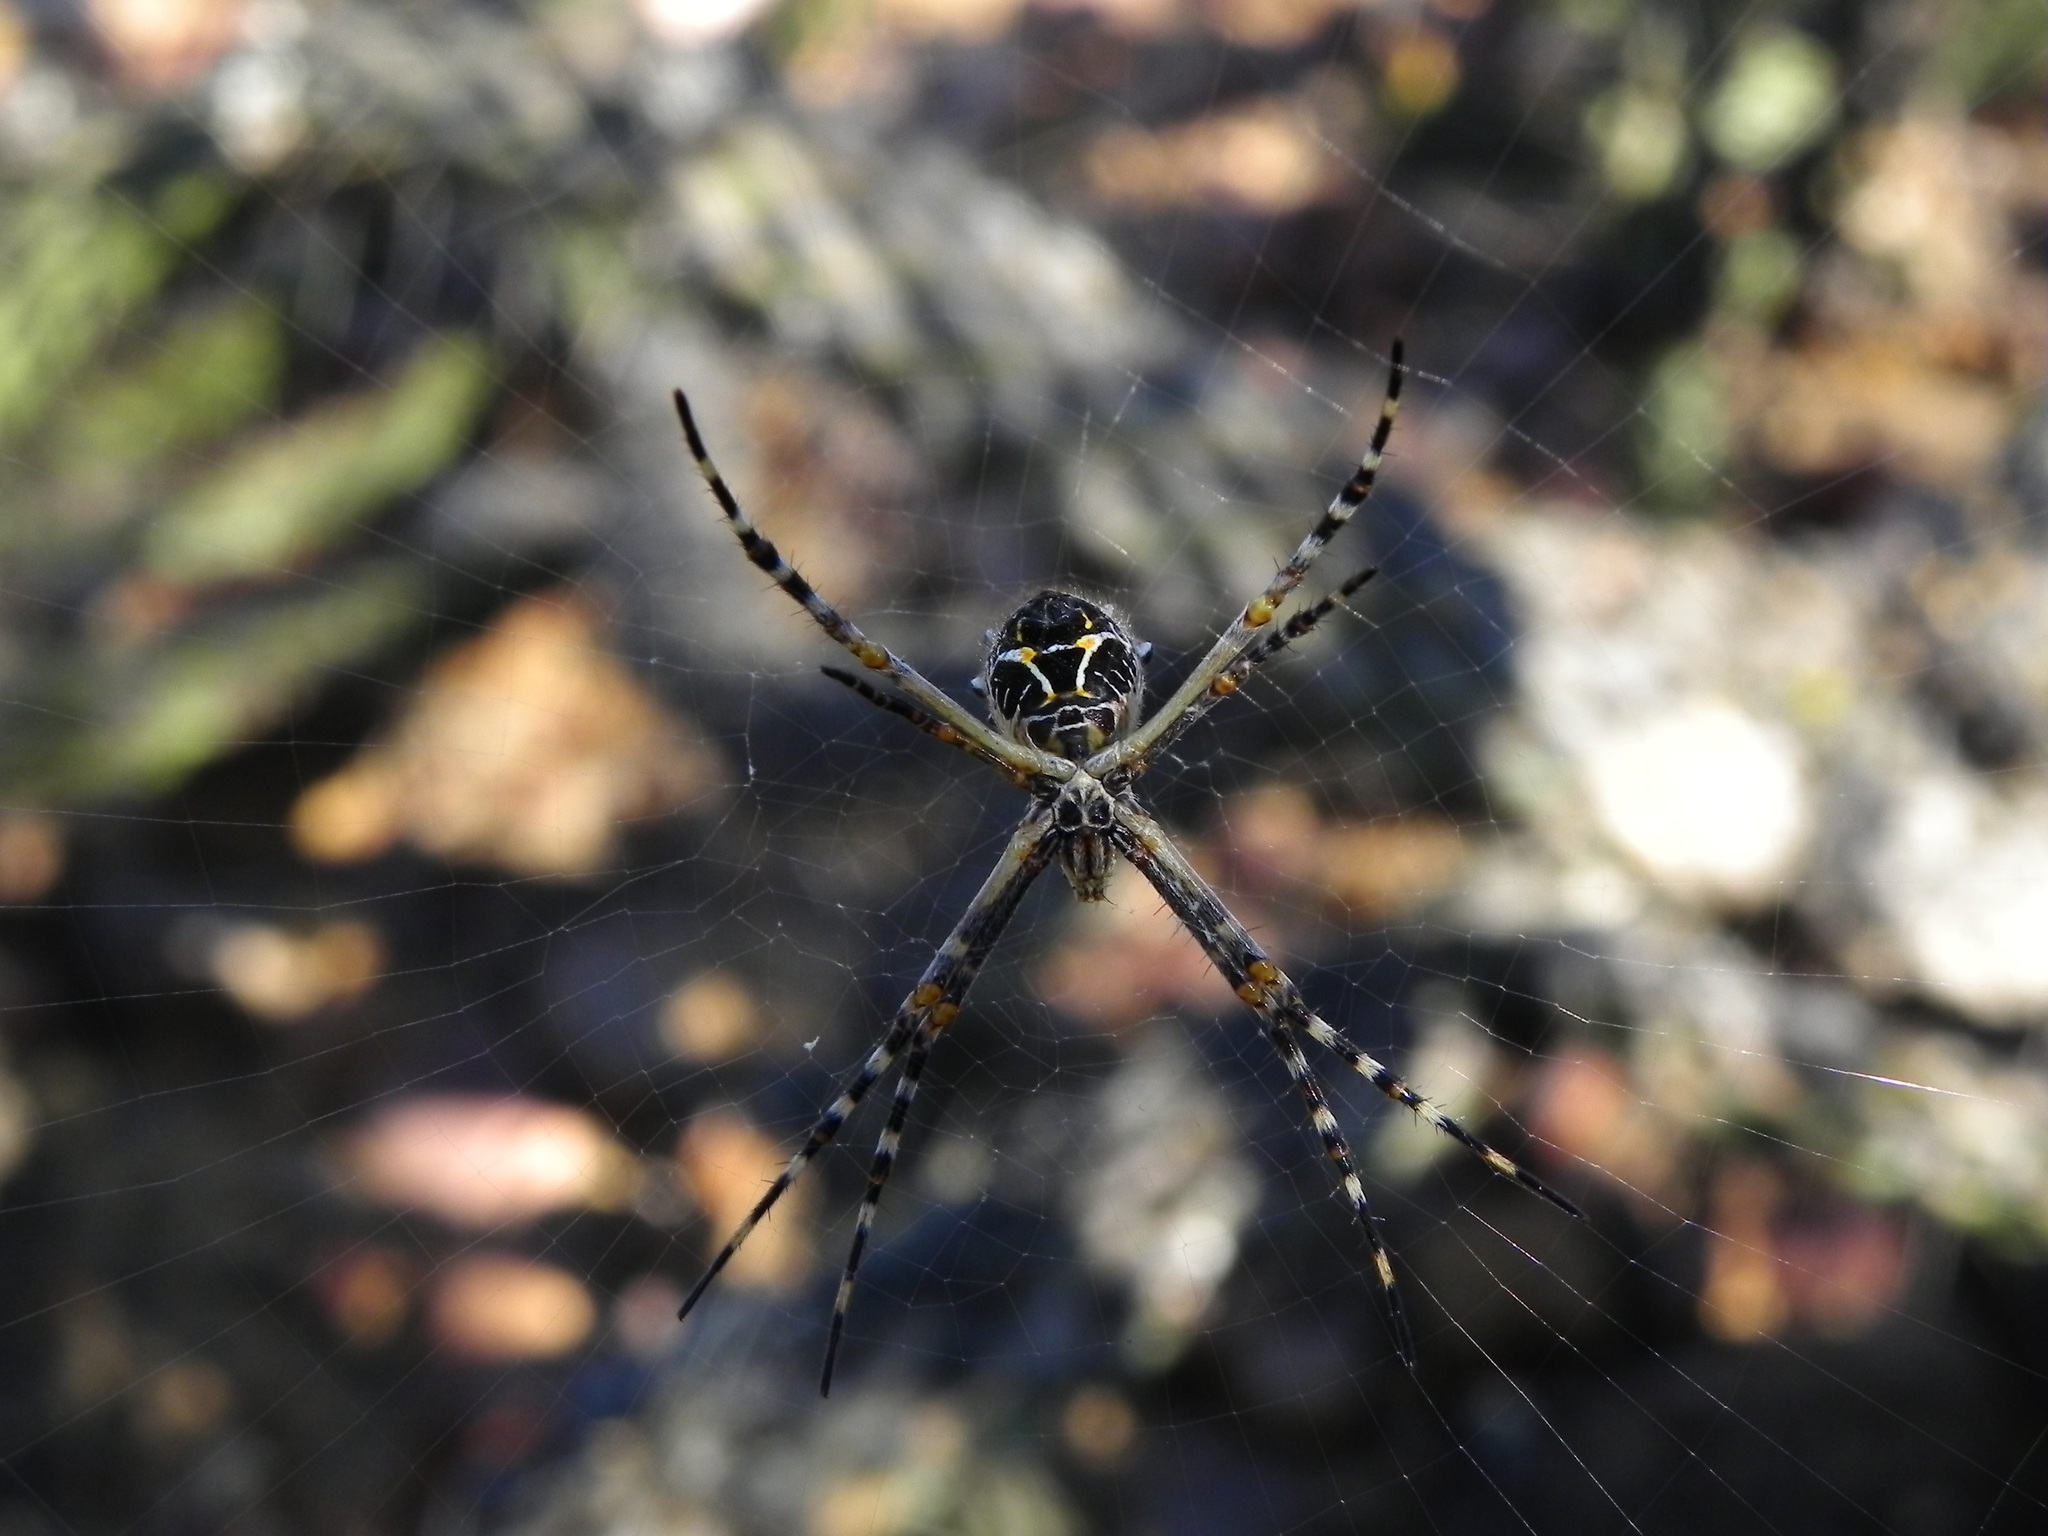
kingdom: Animalia
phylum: Arthropoda
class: Arachnida
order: Araneae
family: Araneidae
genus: Argiope
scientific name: Argiope argentata
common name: Orb weavers
